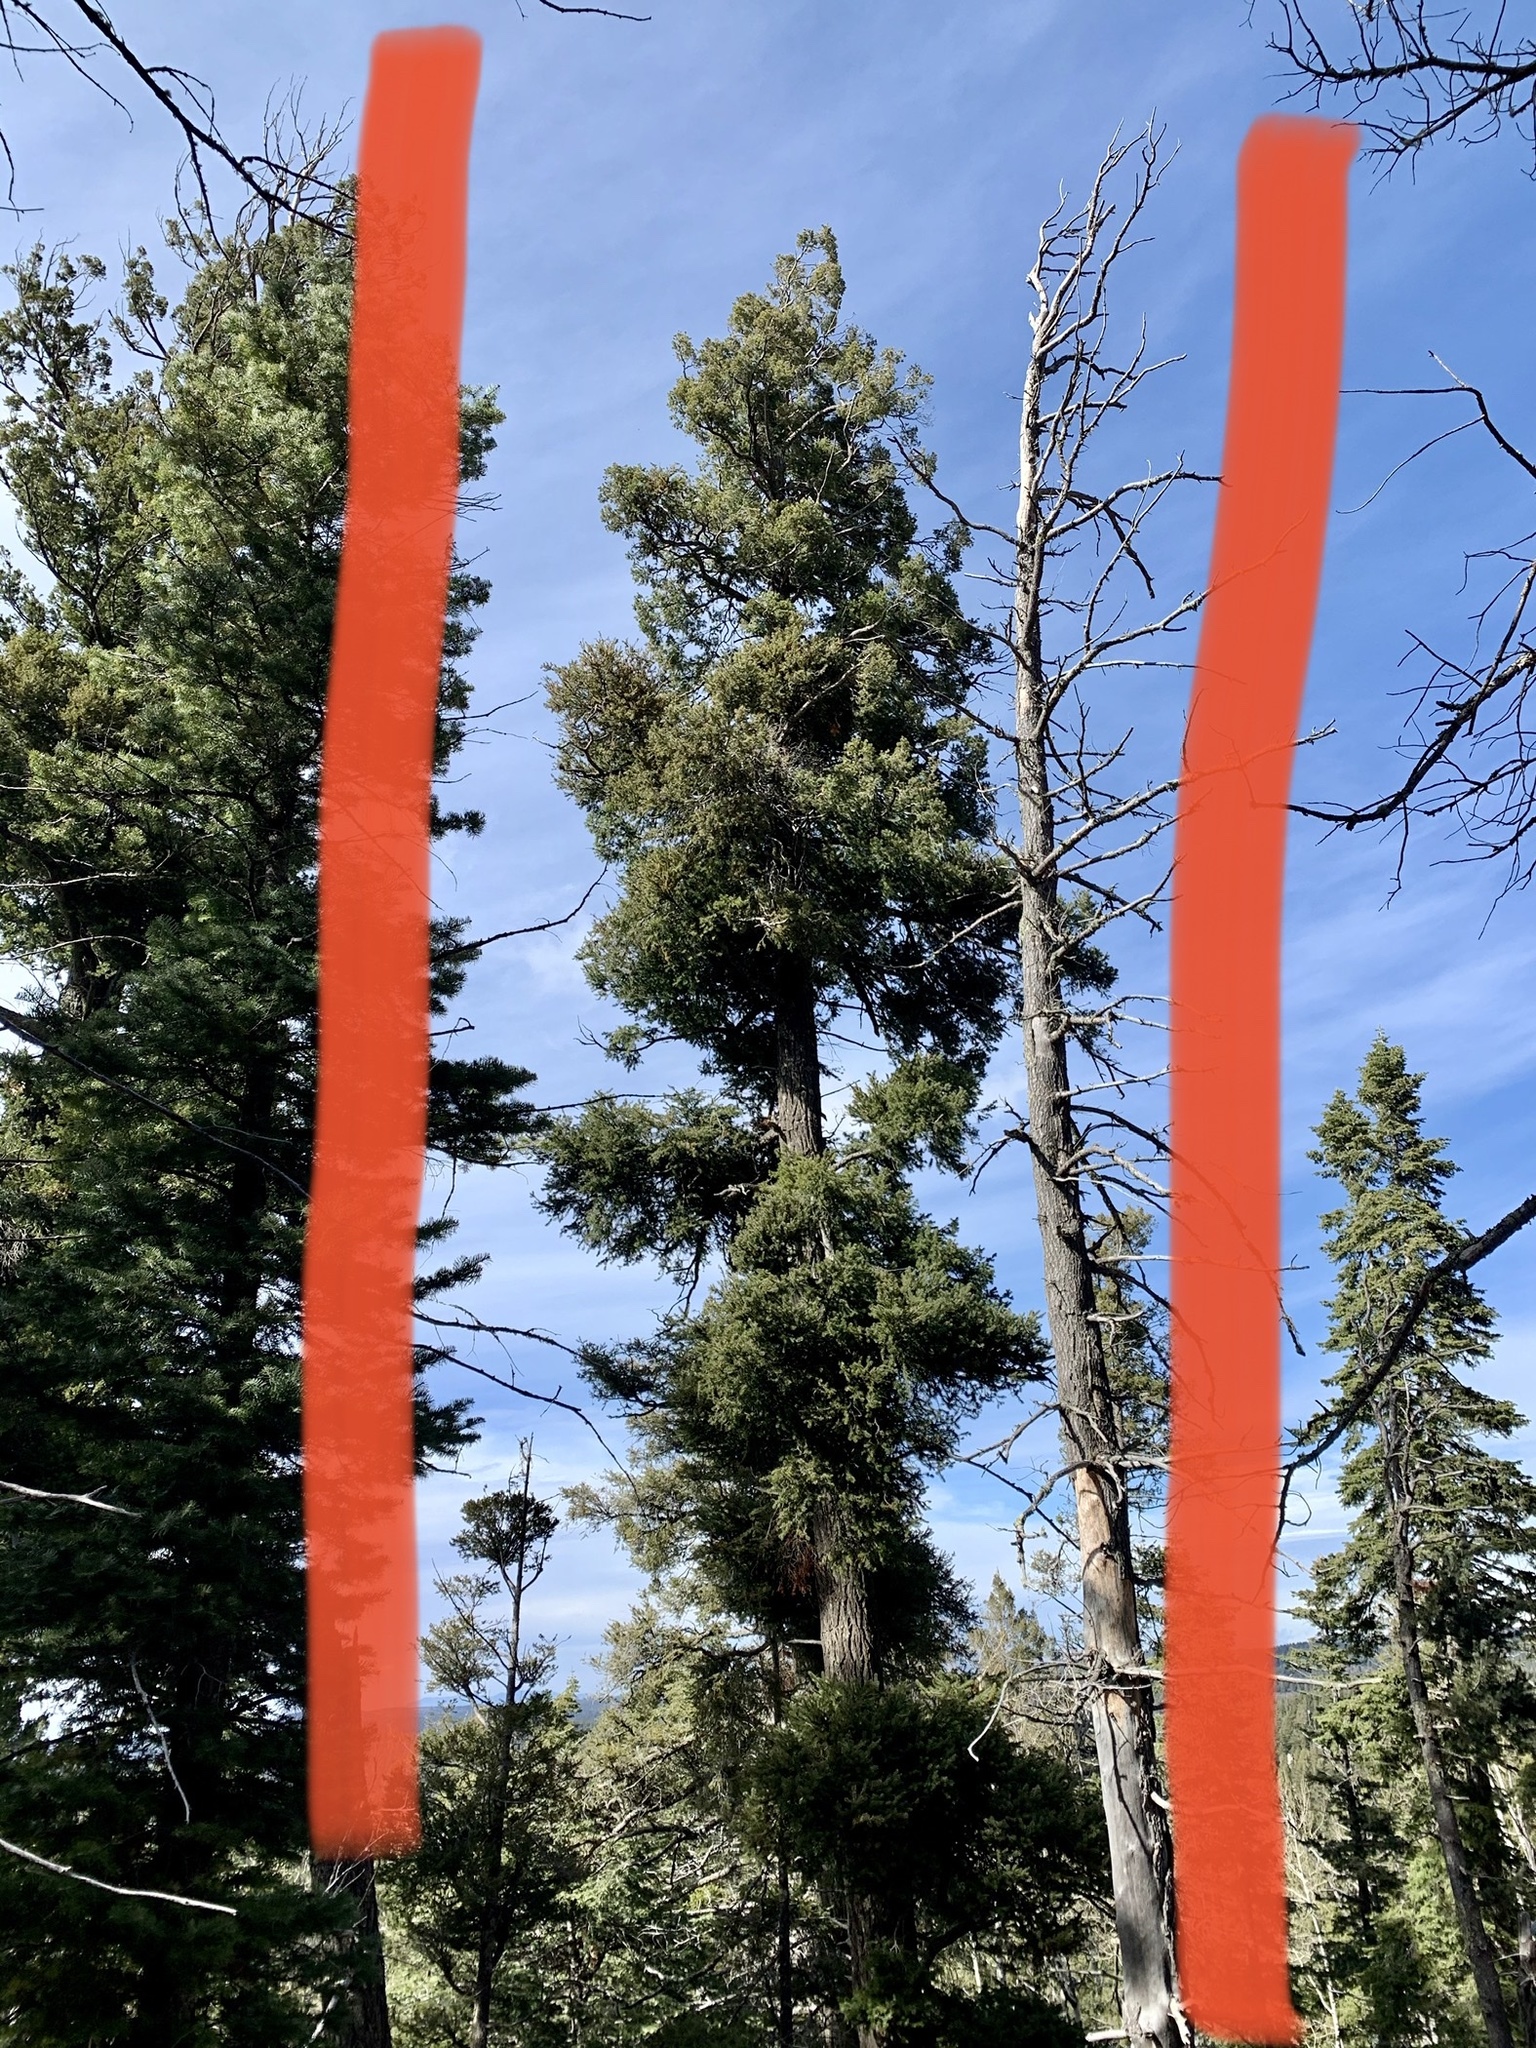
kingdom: Plantae
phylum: Tracheophyta
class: Pinopsida
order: Pinales
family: Pinaceae
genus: Pseudotsuga
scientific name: Pseudotsuga menziesii
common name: Douglas fir
